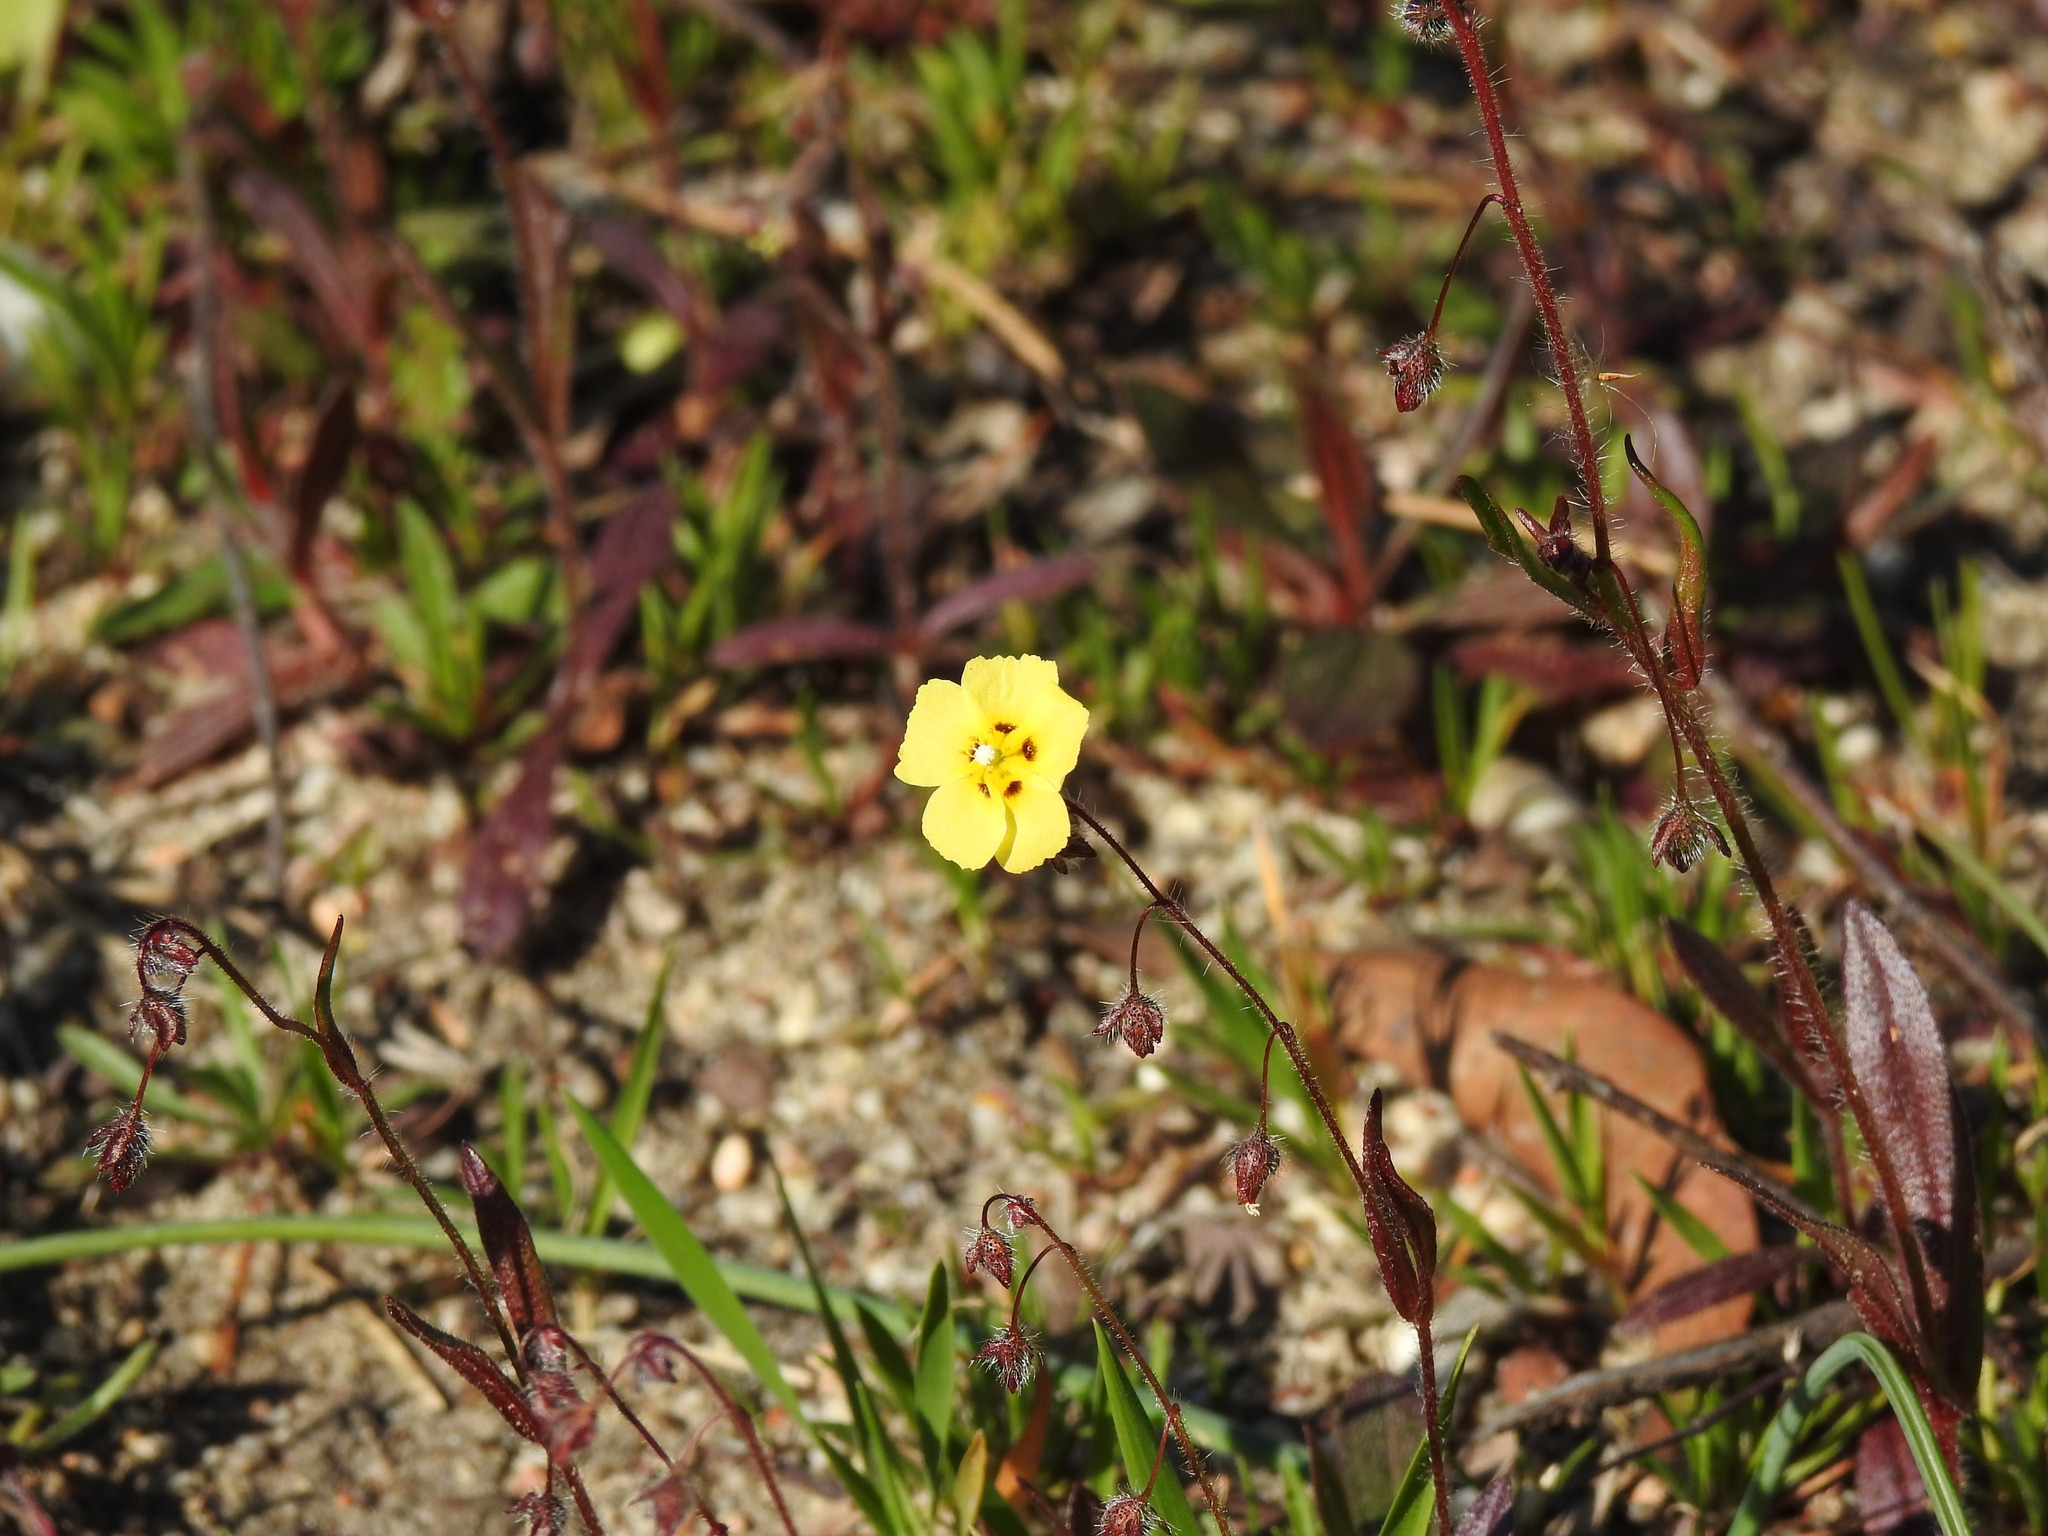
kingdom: Plantae
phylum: Tracheophyta
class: Magnoliopsida
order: Malvales
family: Cistaceae
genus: Tuberaria
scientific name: Tuberaria guttata
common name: Spotted rock-rose
